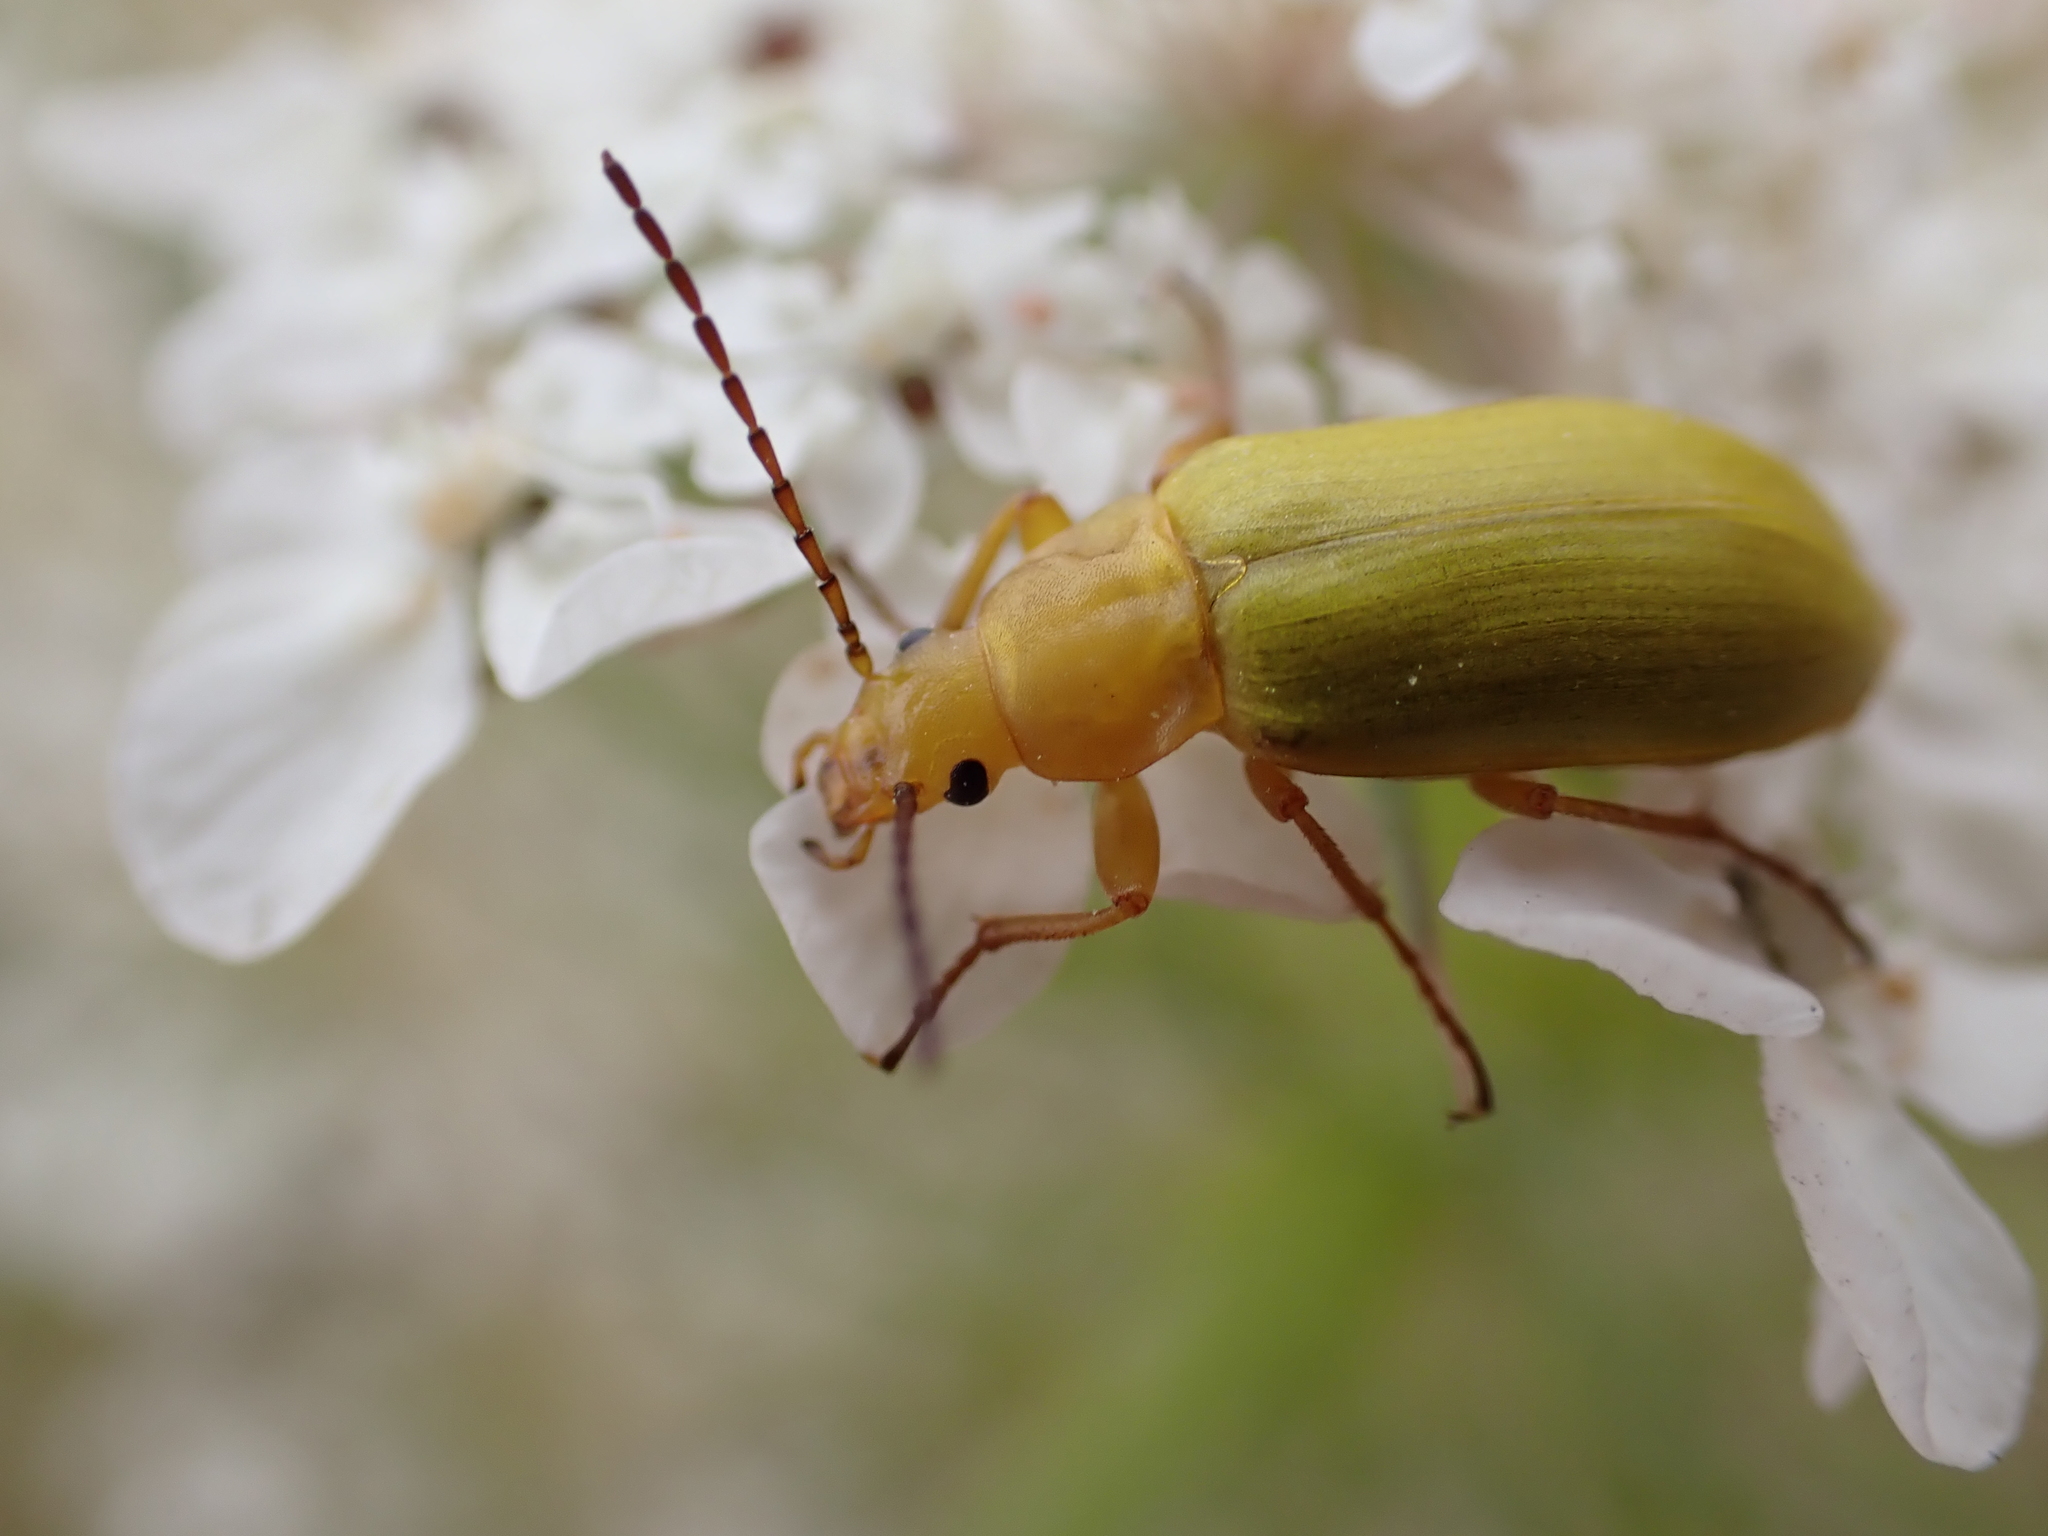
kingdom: Animalia
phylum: Arthropoda
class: Insecta
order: Coleoptera
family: Tenebrionidae
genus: Cteniopus
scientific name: Cteniopus sulphureus
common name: Sulphur beetle
